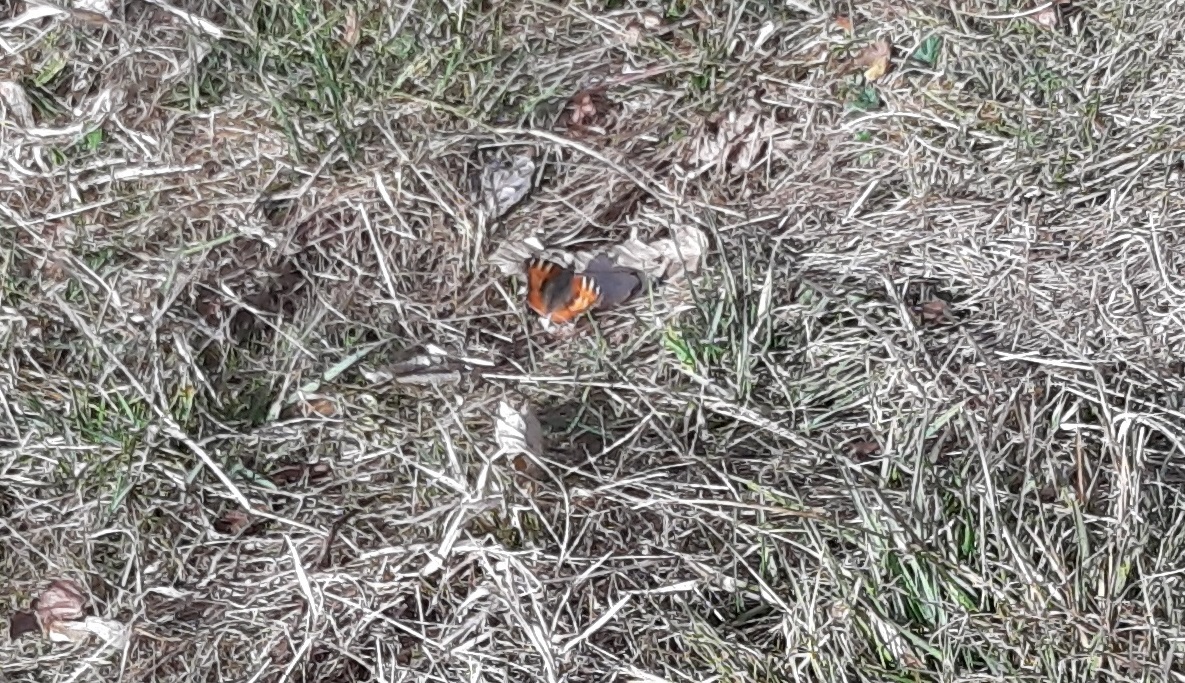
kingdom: Animalia
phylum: Arthropoda
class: Insecta
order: Lepidoptera
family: Nymphalidae
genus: Aglais
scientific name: Aglais urticae
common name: Small tortoiseshell
